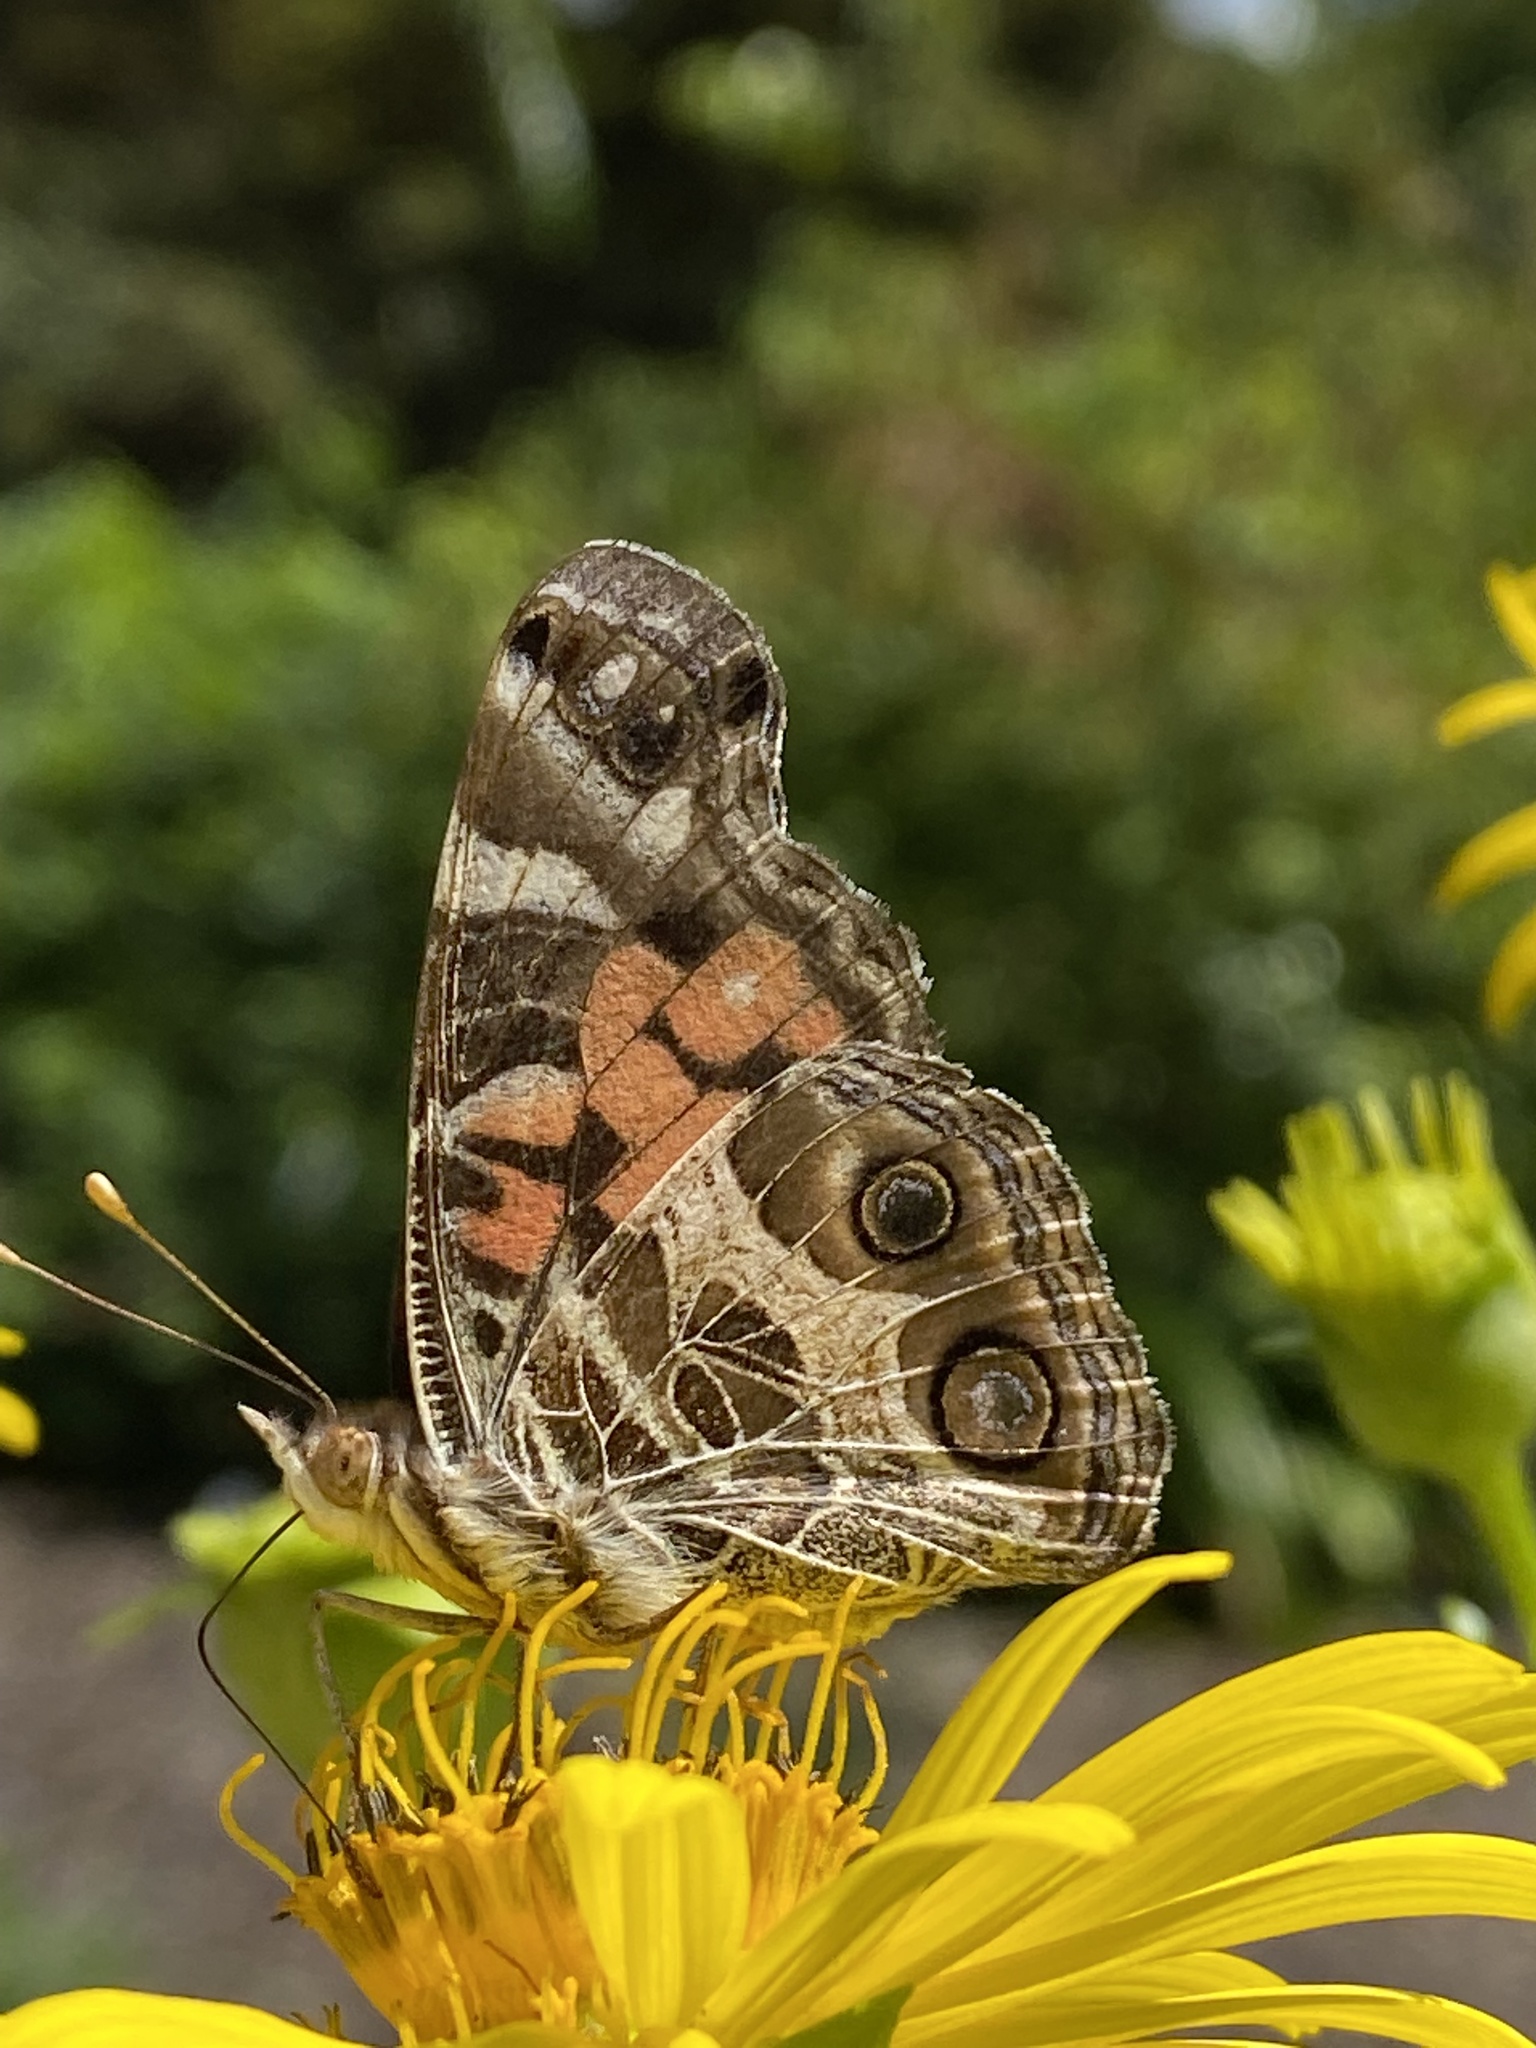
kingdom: Animalia
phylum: Arthropoda
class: Insecta
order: Lepidoptera
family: Nymphalidae
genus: Vanessa
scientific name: Vanessa virginiensis
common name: American lady
